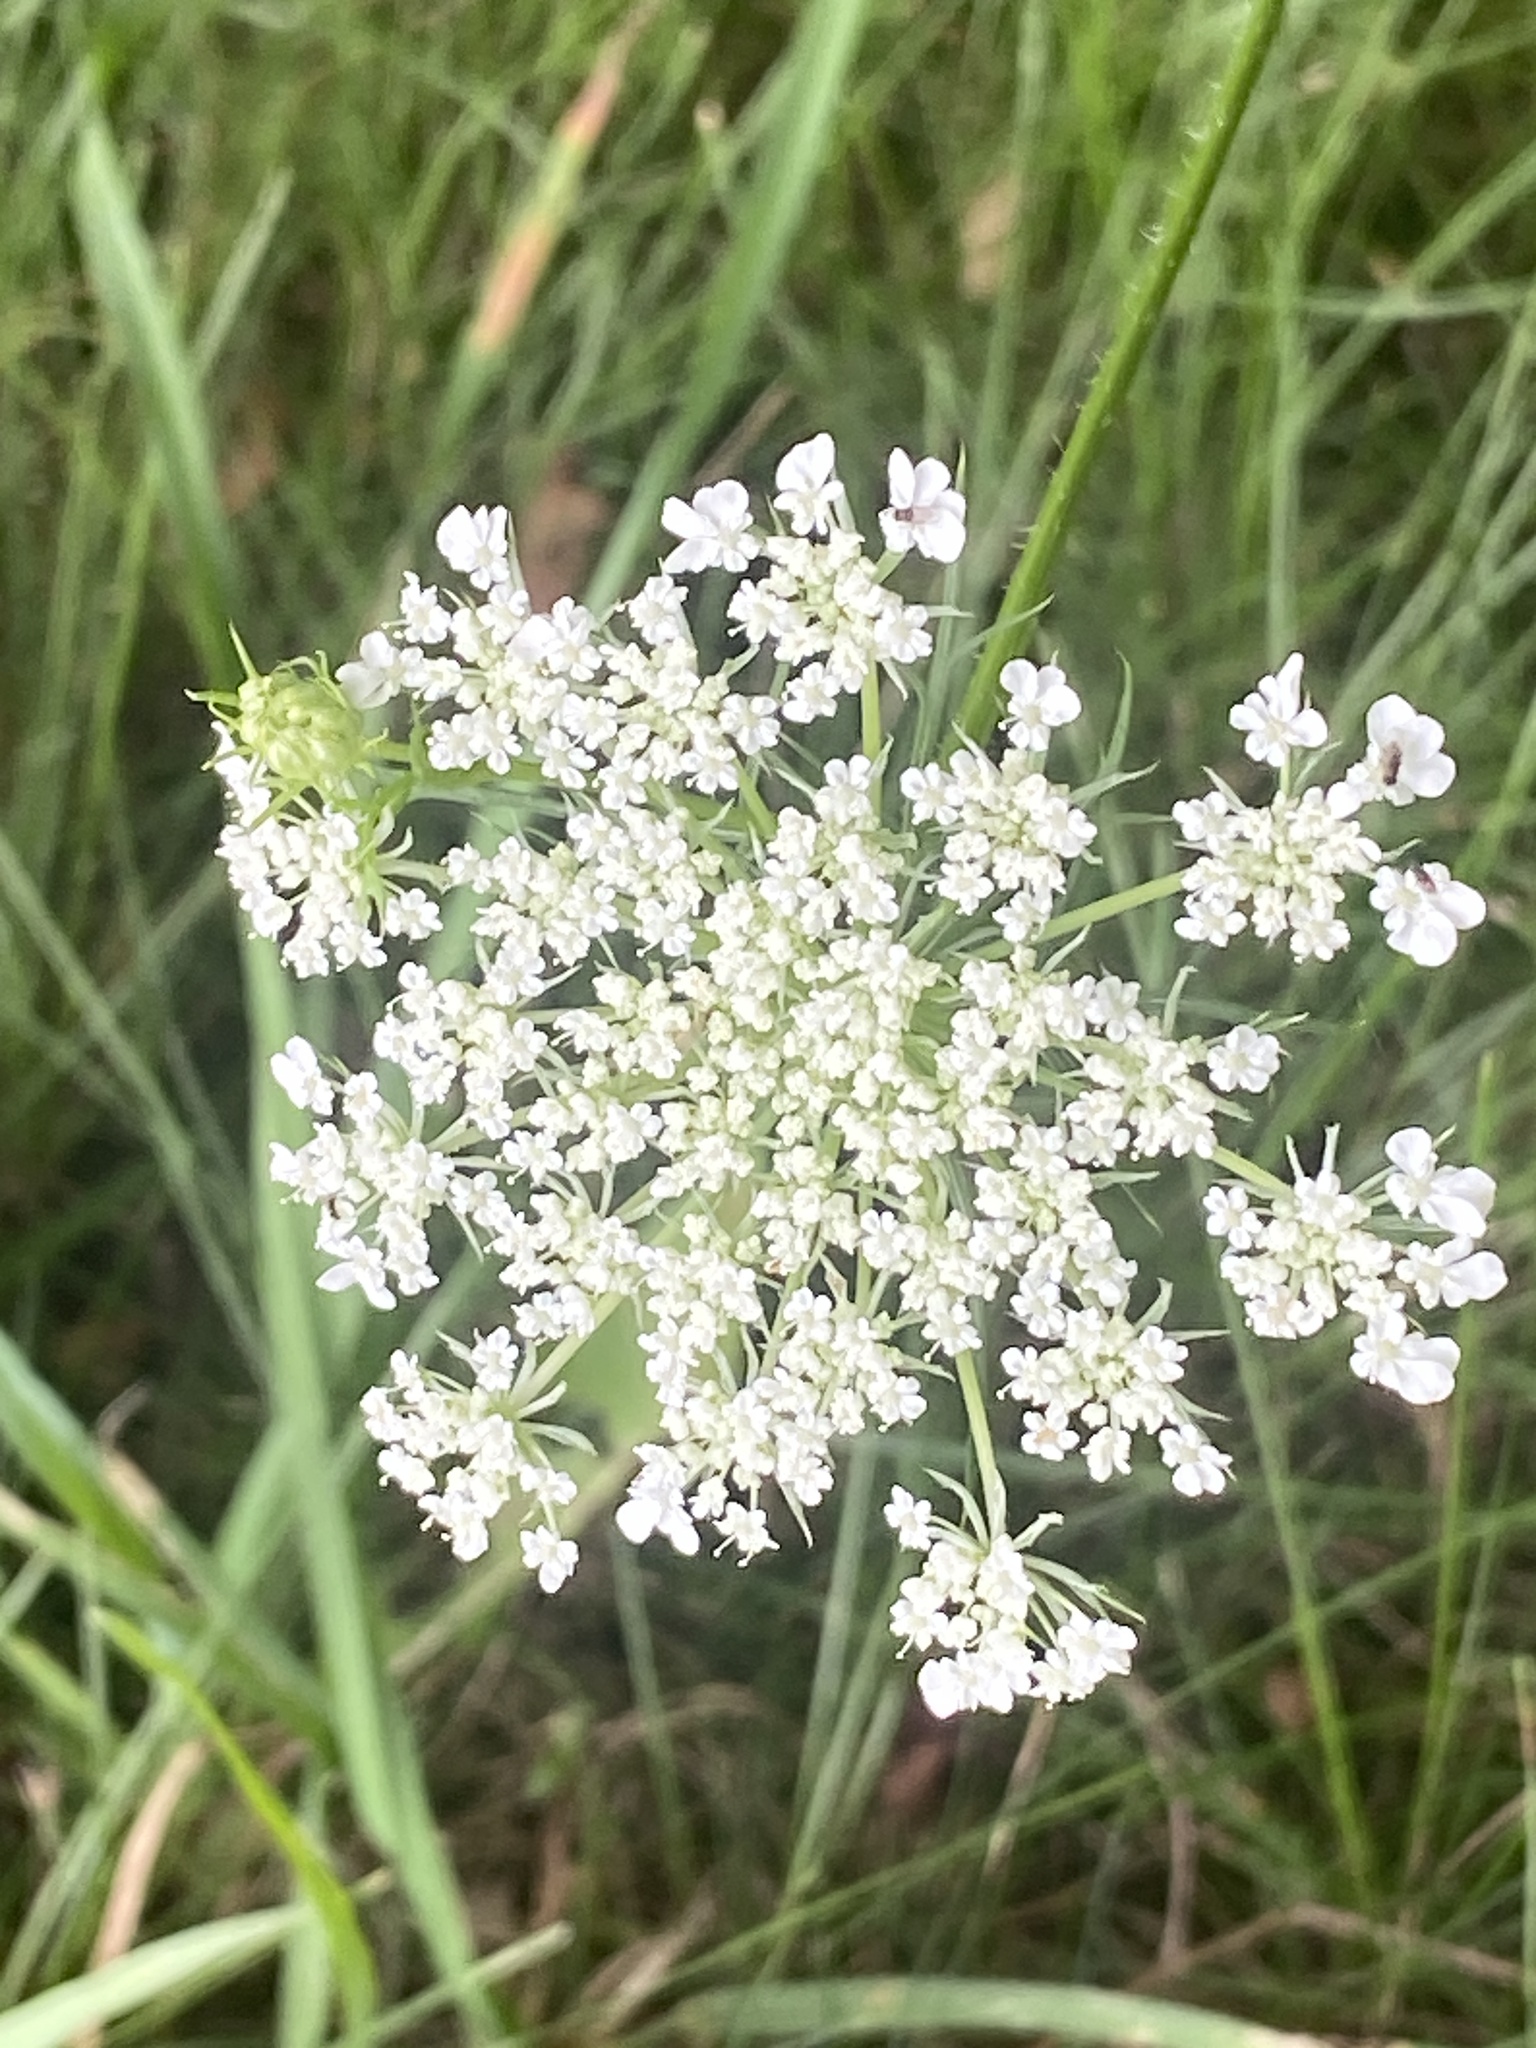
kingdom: Plantae
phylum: Tracheophyta
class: Magnoliopsida
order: Apiales
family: Apiaceae
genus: Daucus
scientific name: Daucus carota
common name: Wild carrot
